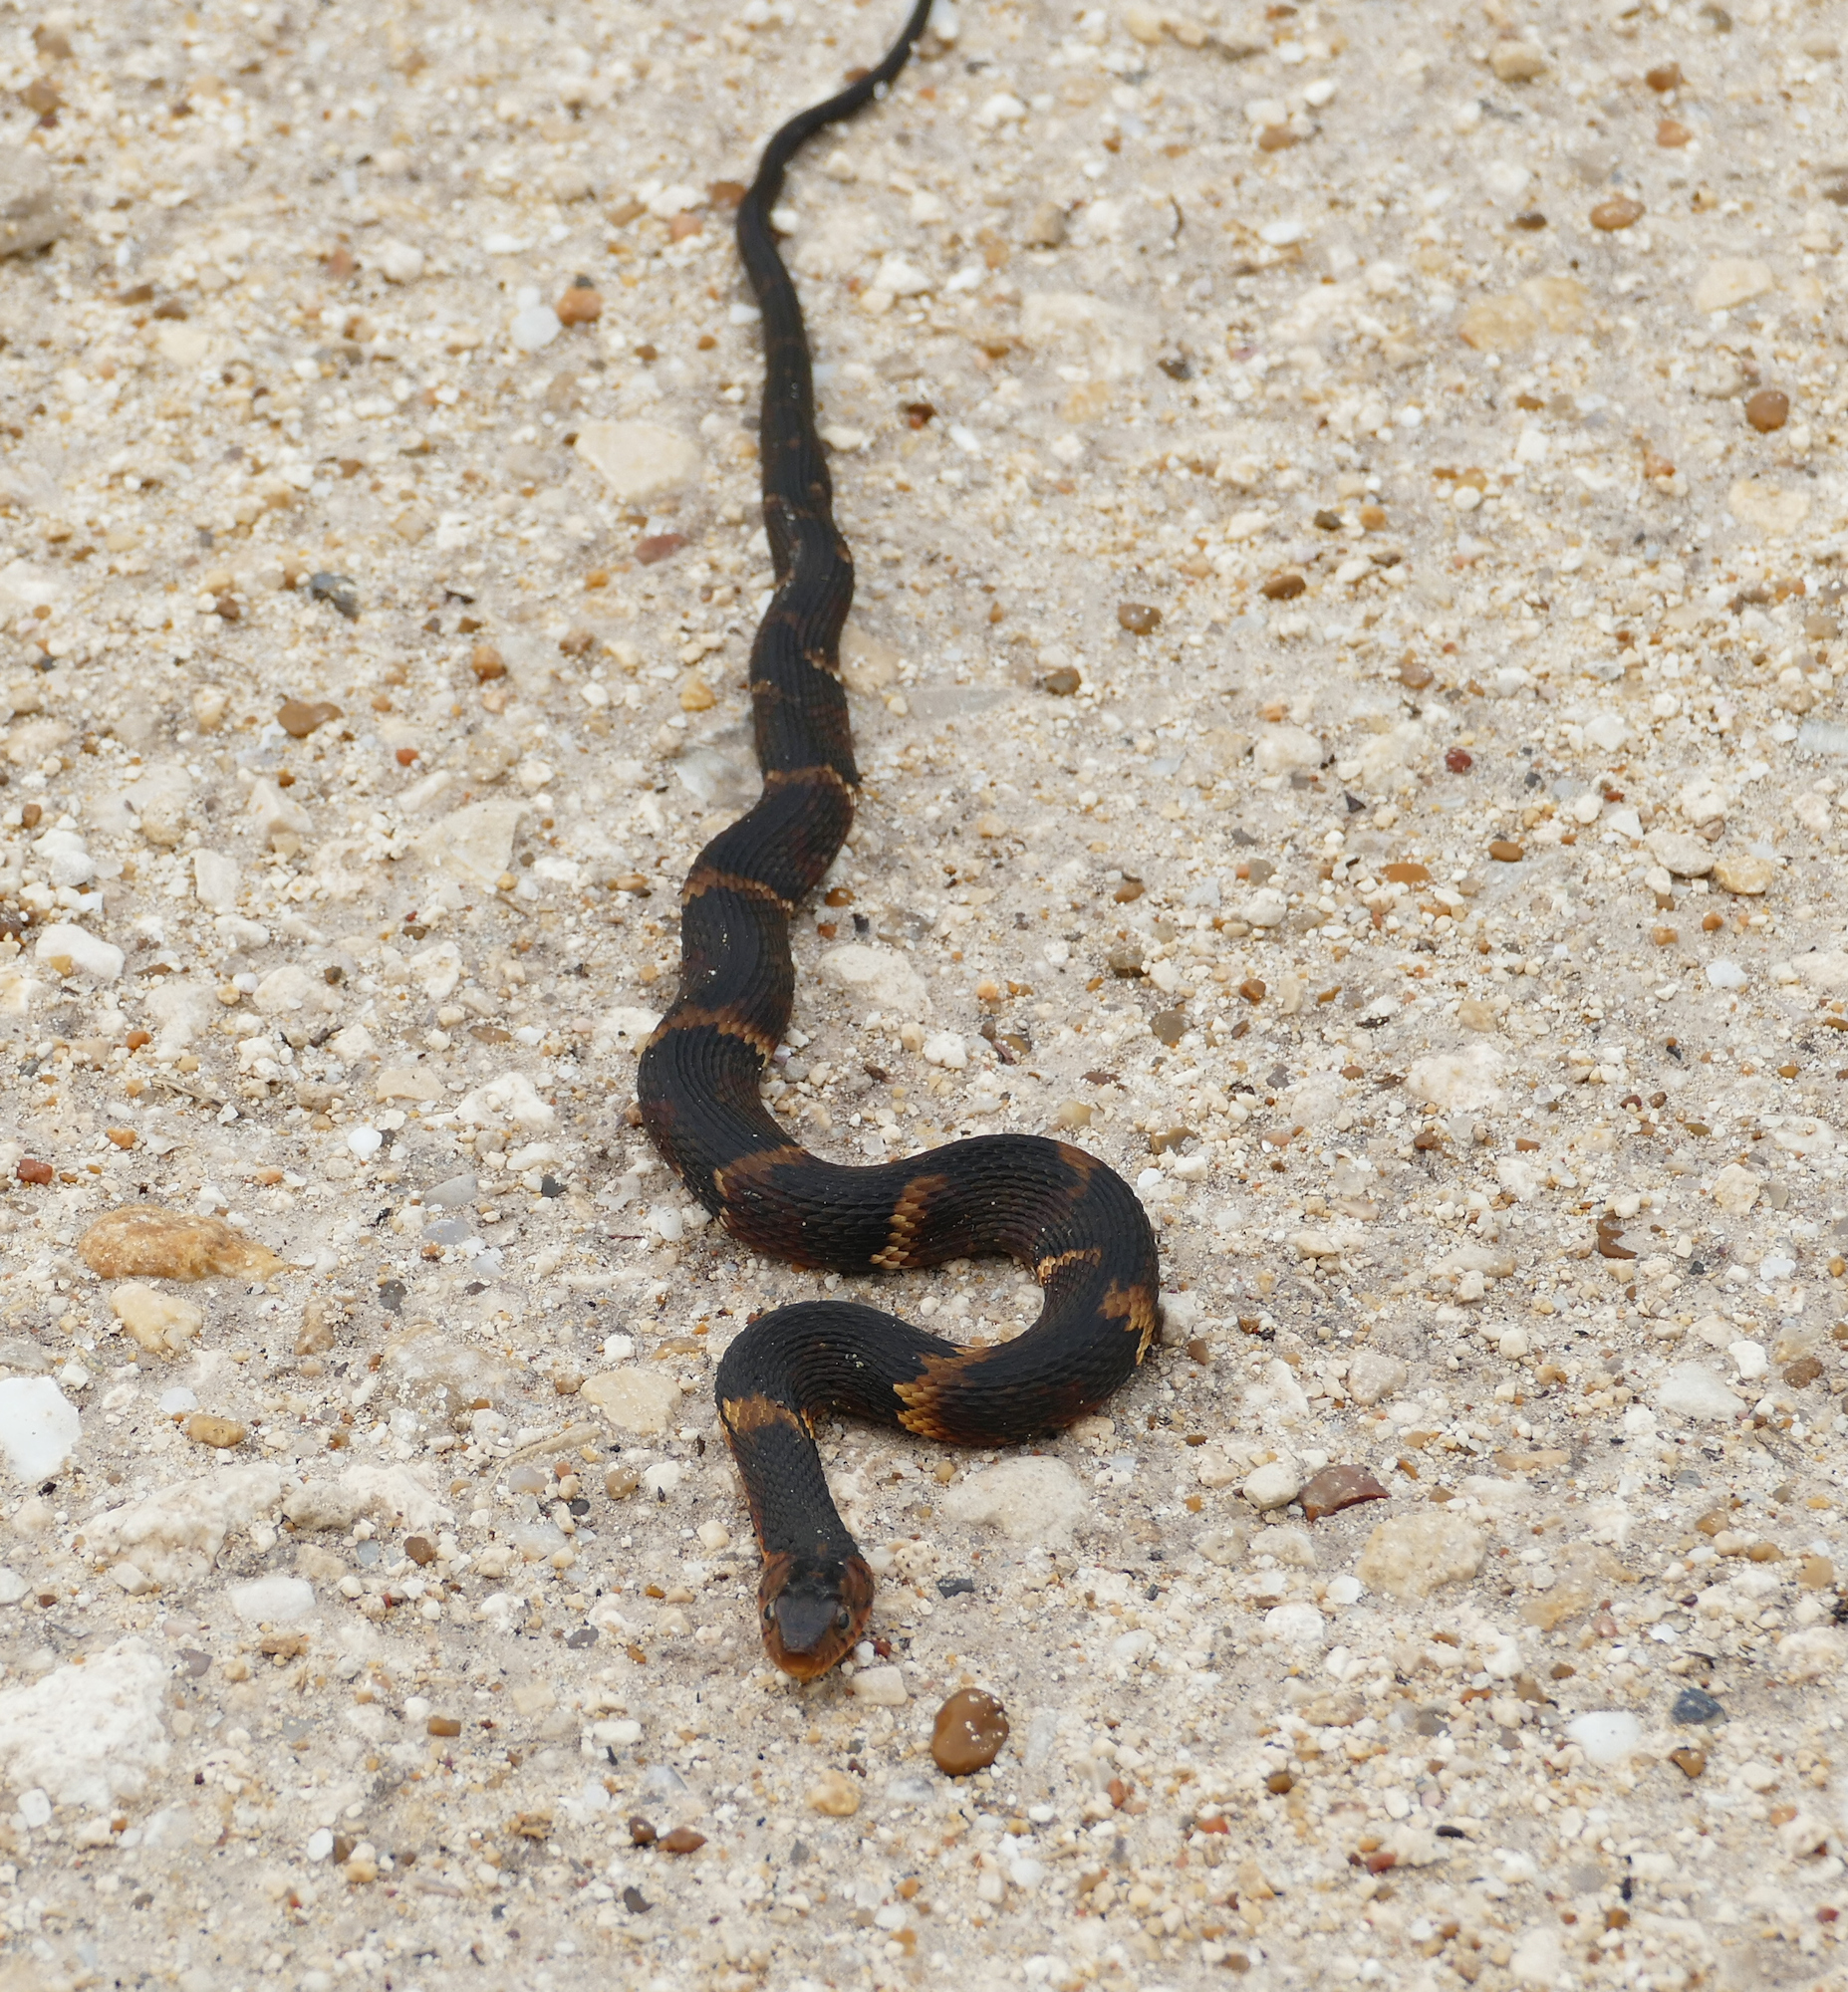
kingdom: Animalia
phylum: Chordata
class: Squamata
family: Colubridae
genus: Nerodia
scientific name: Nerodia fasciata
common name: Southern water snake
